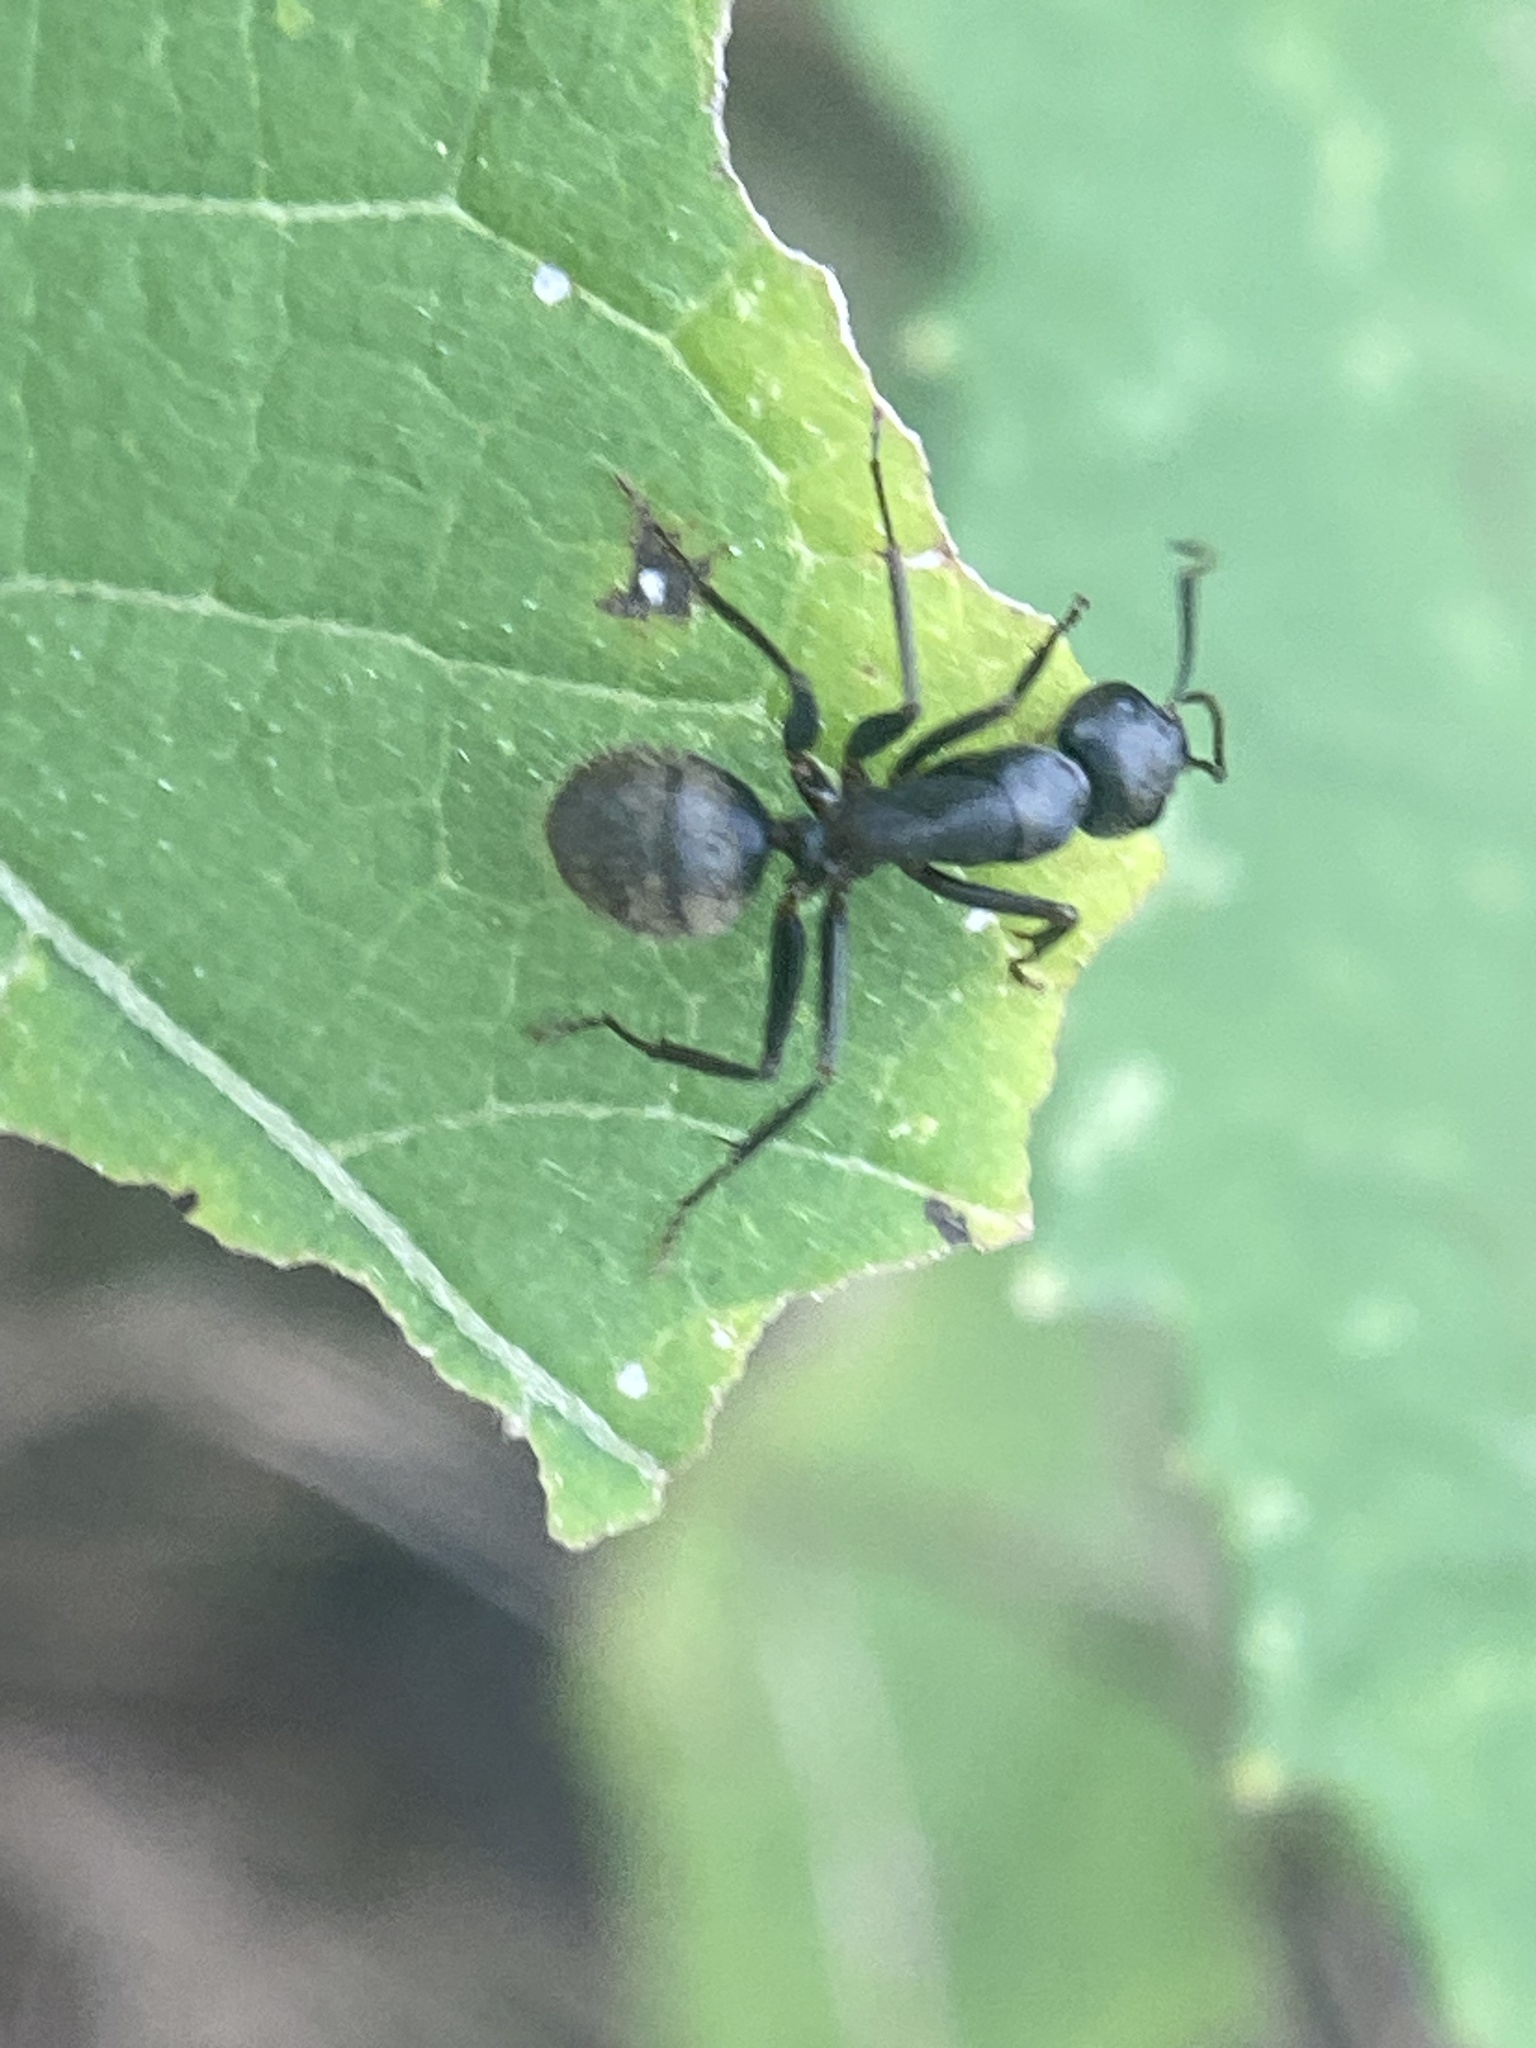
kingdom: Animalia
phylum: Arthropoda
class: Insecta
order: Hymenoptera
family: Formicidae
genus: Camponotus
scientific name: Camponotus chromaiodes
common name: Red carpenter ant
